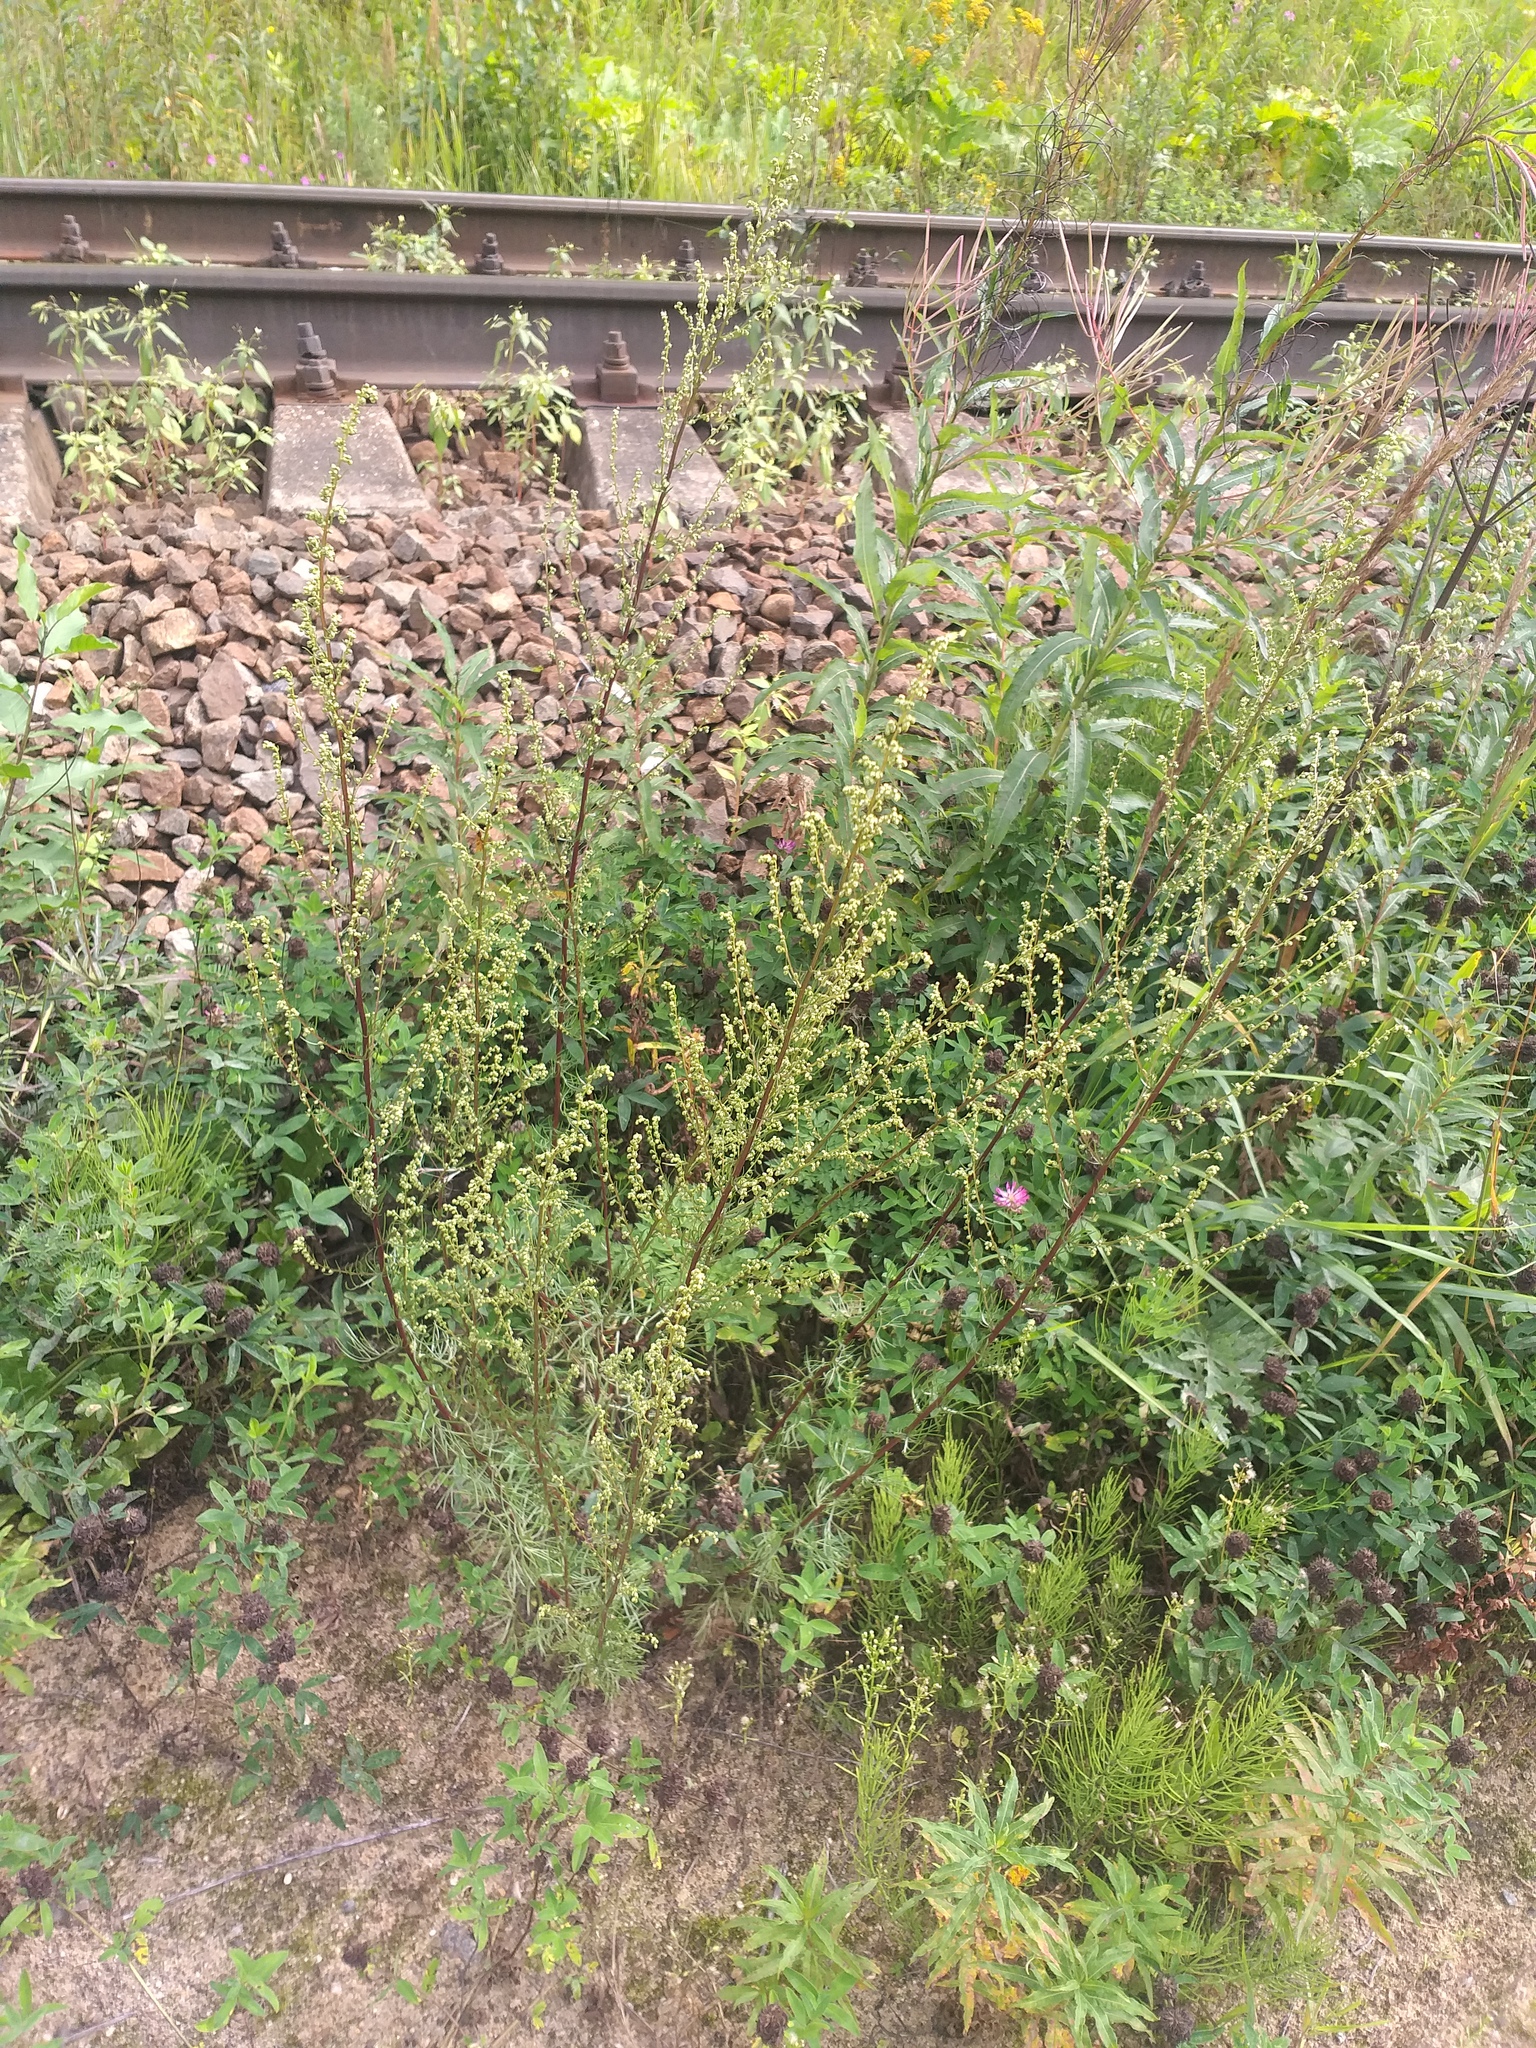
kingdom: Plantae
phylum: Tracheophyta
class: Magnoliopsida
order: Asterales
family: Asteraceae
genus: Artemisia
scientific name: Artemisia campestris
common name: Field wormwood
